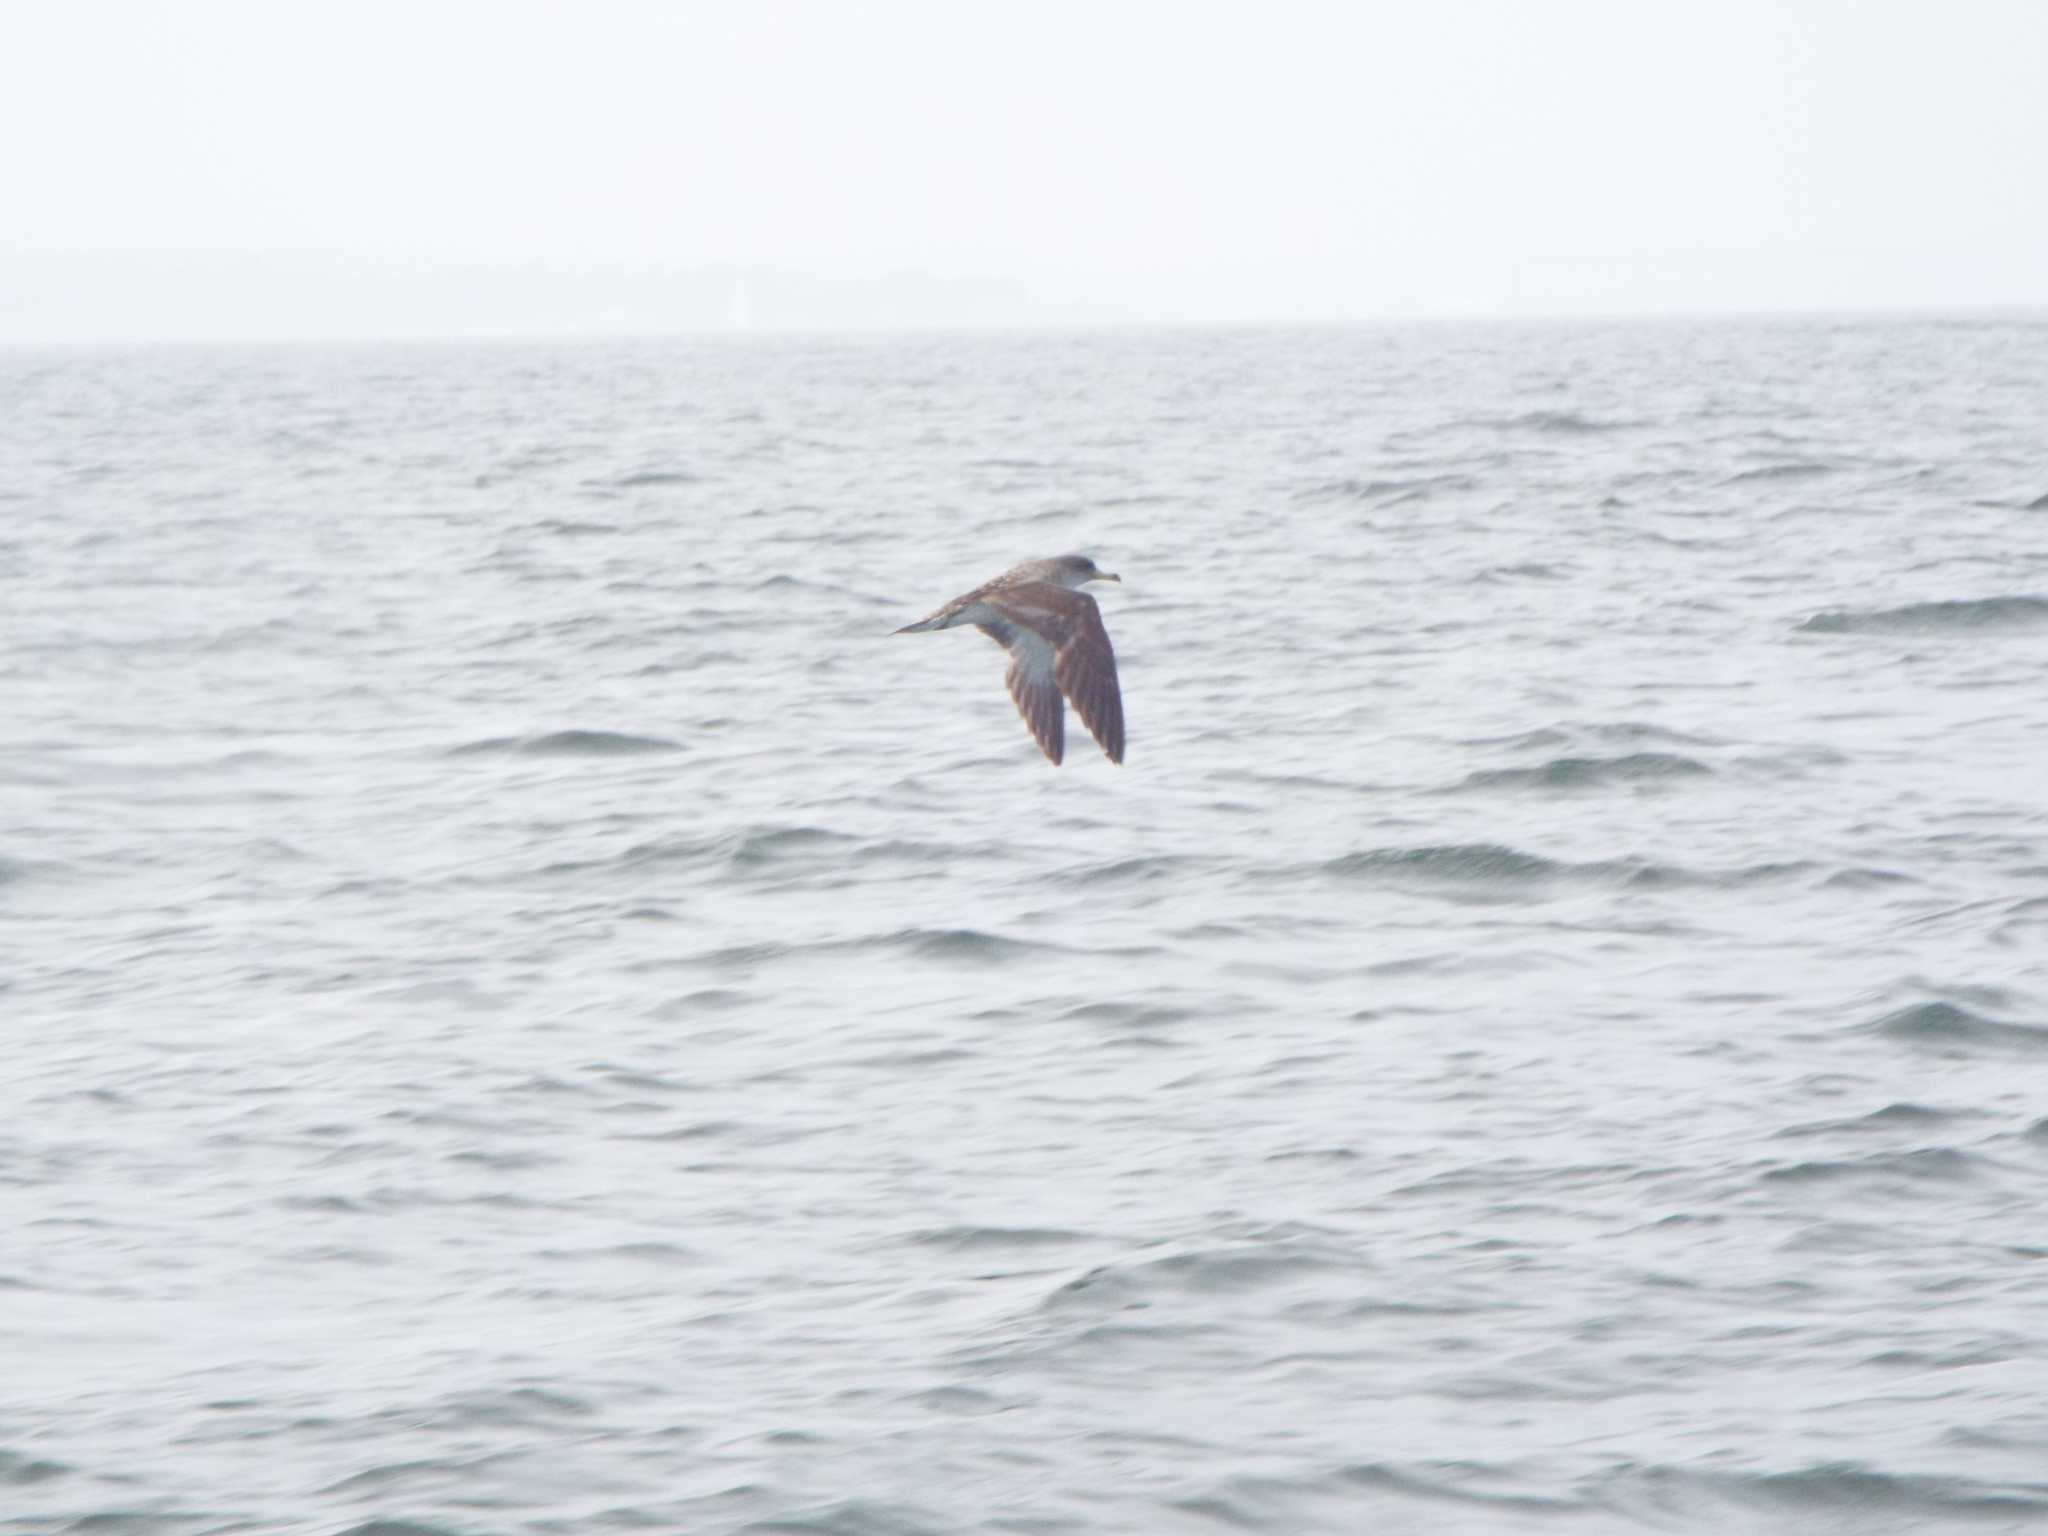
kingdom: Animalia
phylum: Chordata
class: Aves
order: Procellariiformes
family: Procellariidae
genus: Calonectris
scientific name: Calonectris diomedea
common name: Cory's shearwater
